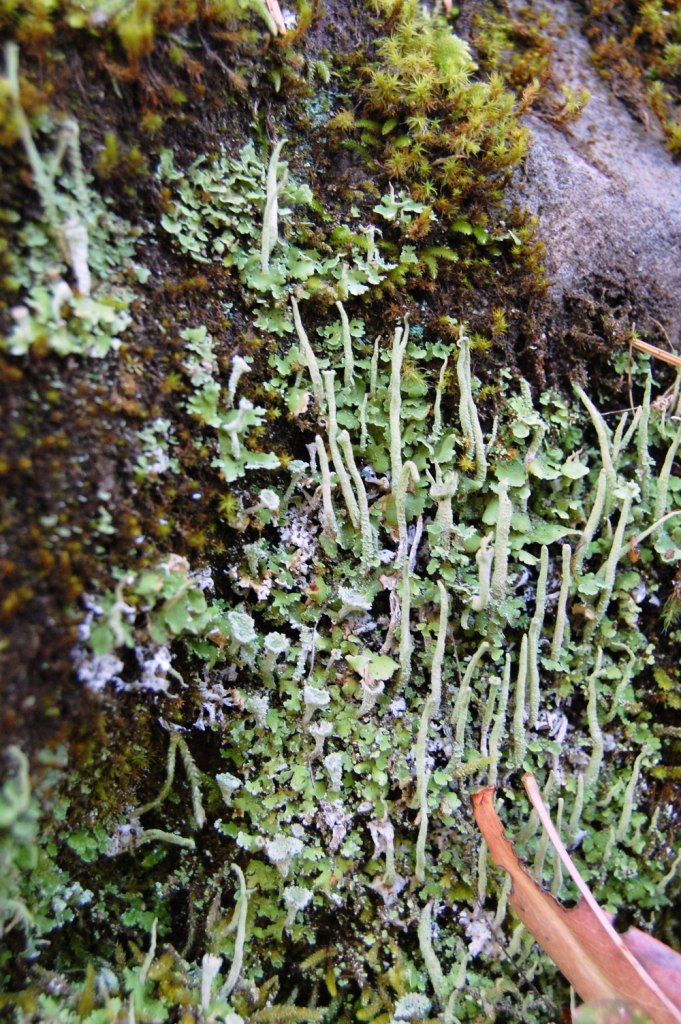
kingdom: Fungi
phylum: Ascomycota
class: Lecanoromycetes
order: Lecanorales
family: Cladoniaceae
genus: Cladonia
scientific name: Cladonia asahinae
